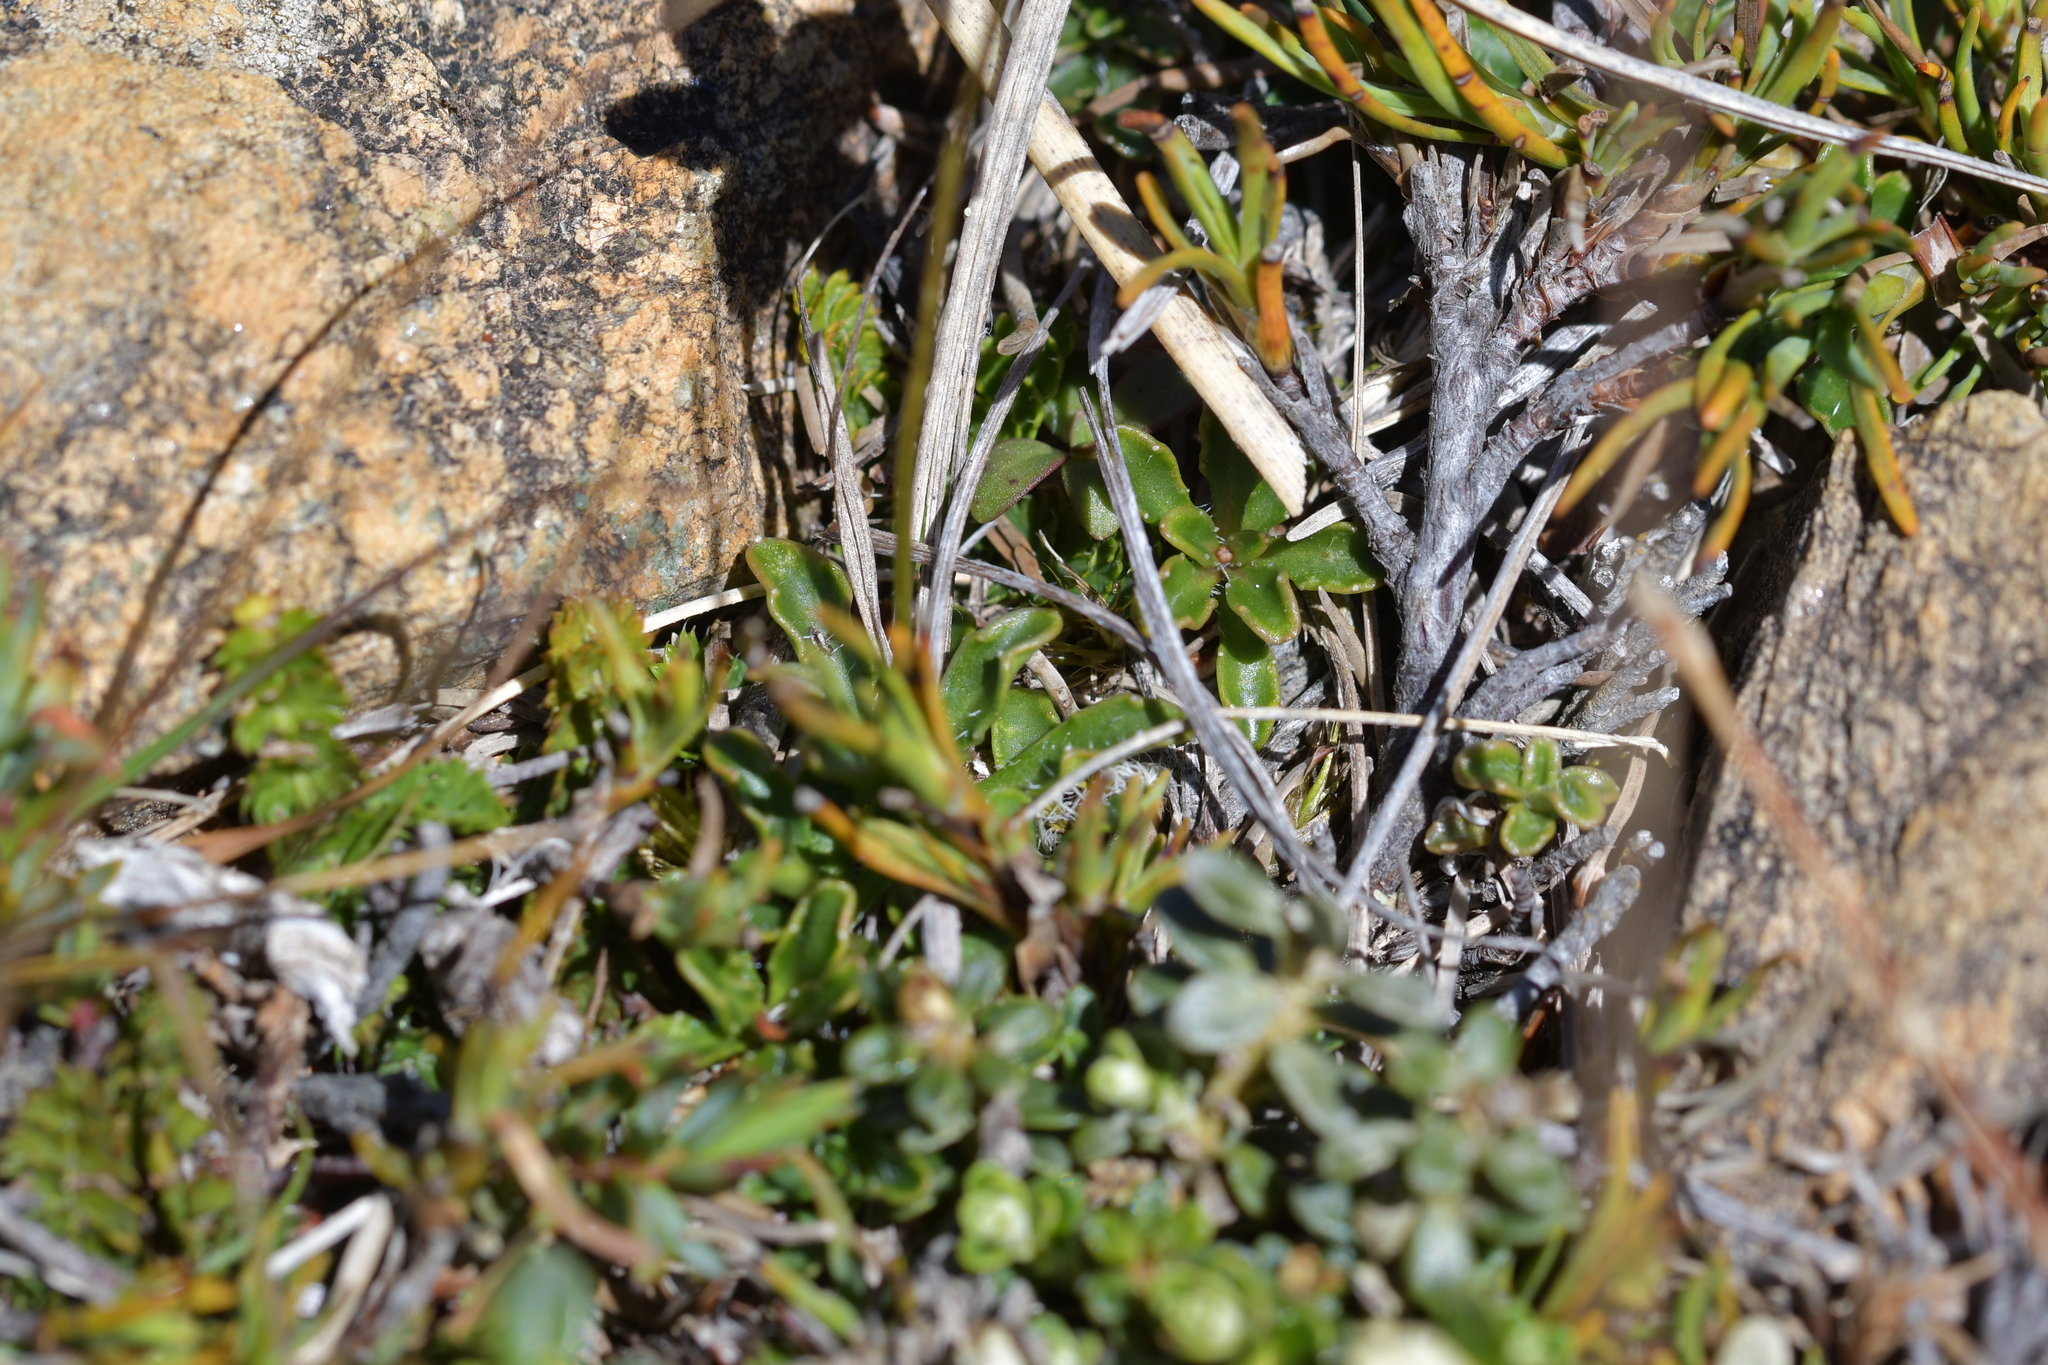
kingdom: Plantae
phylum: Tracheophyta
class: Magnoliopsida
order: Asterales
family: Campanulaceae
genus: Wahlenbergia
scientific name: Wahlenbergia albomarginata
